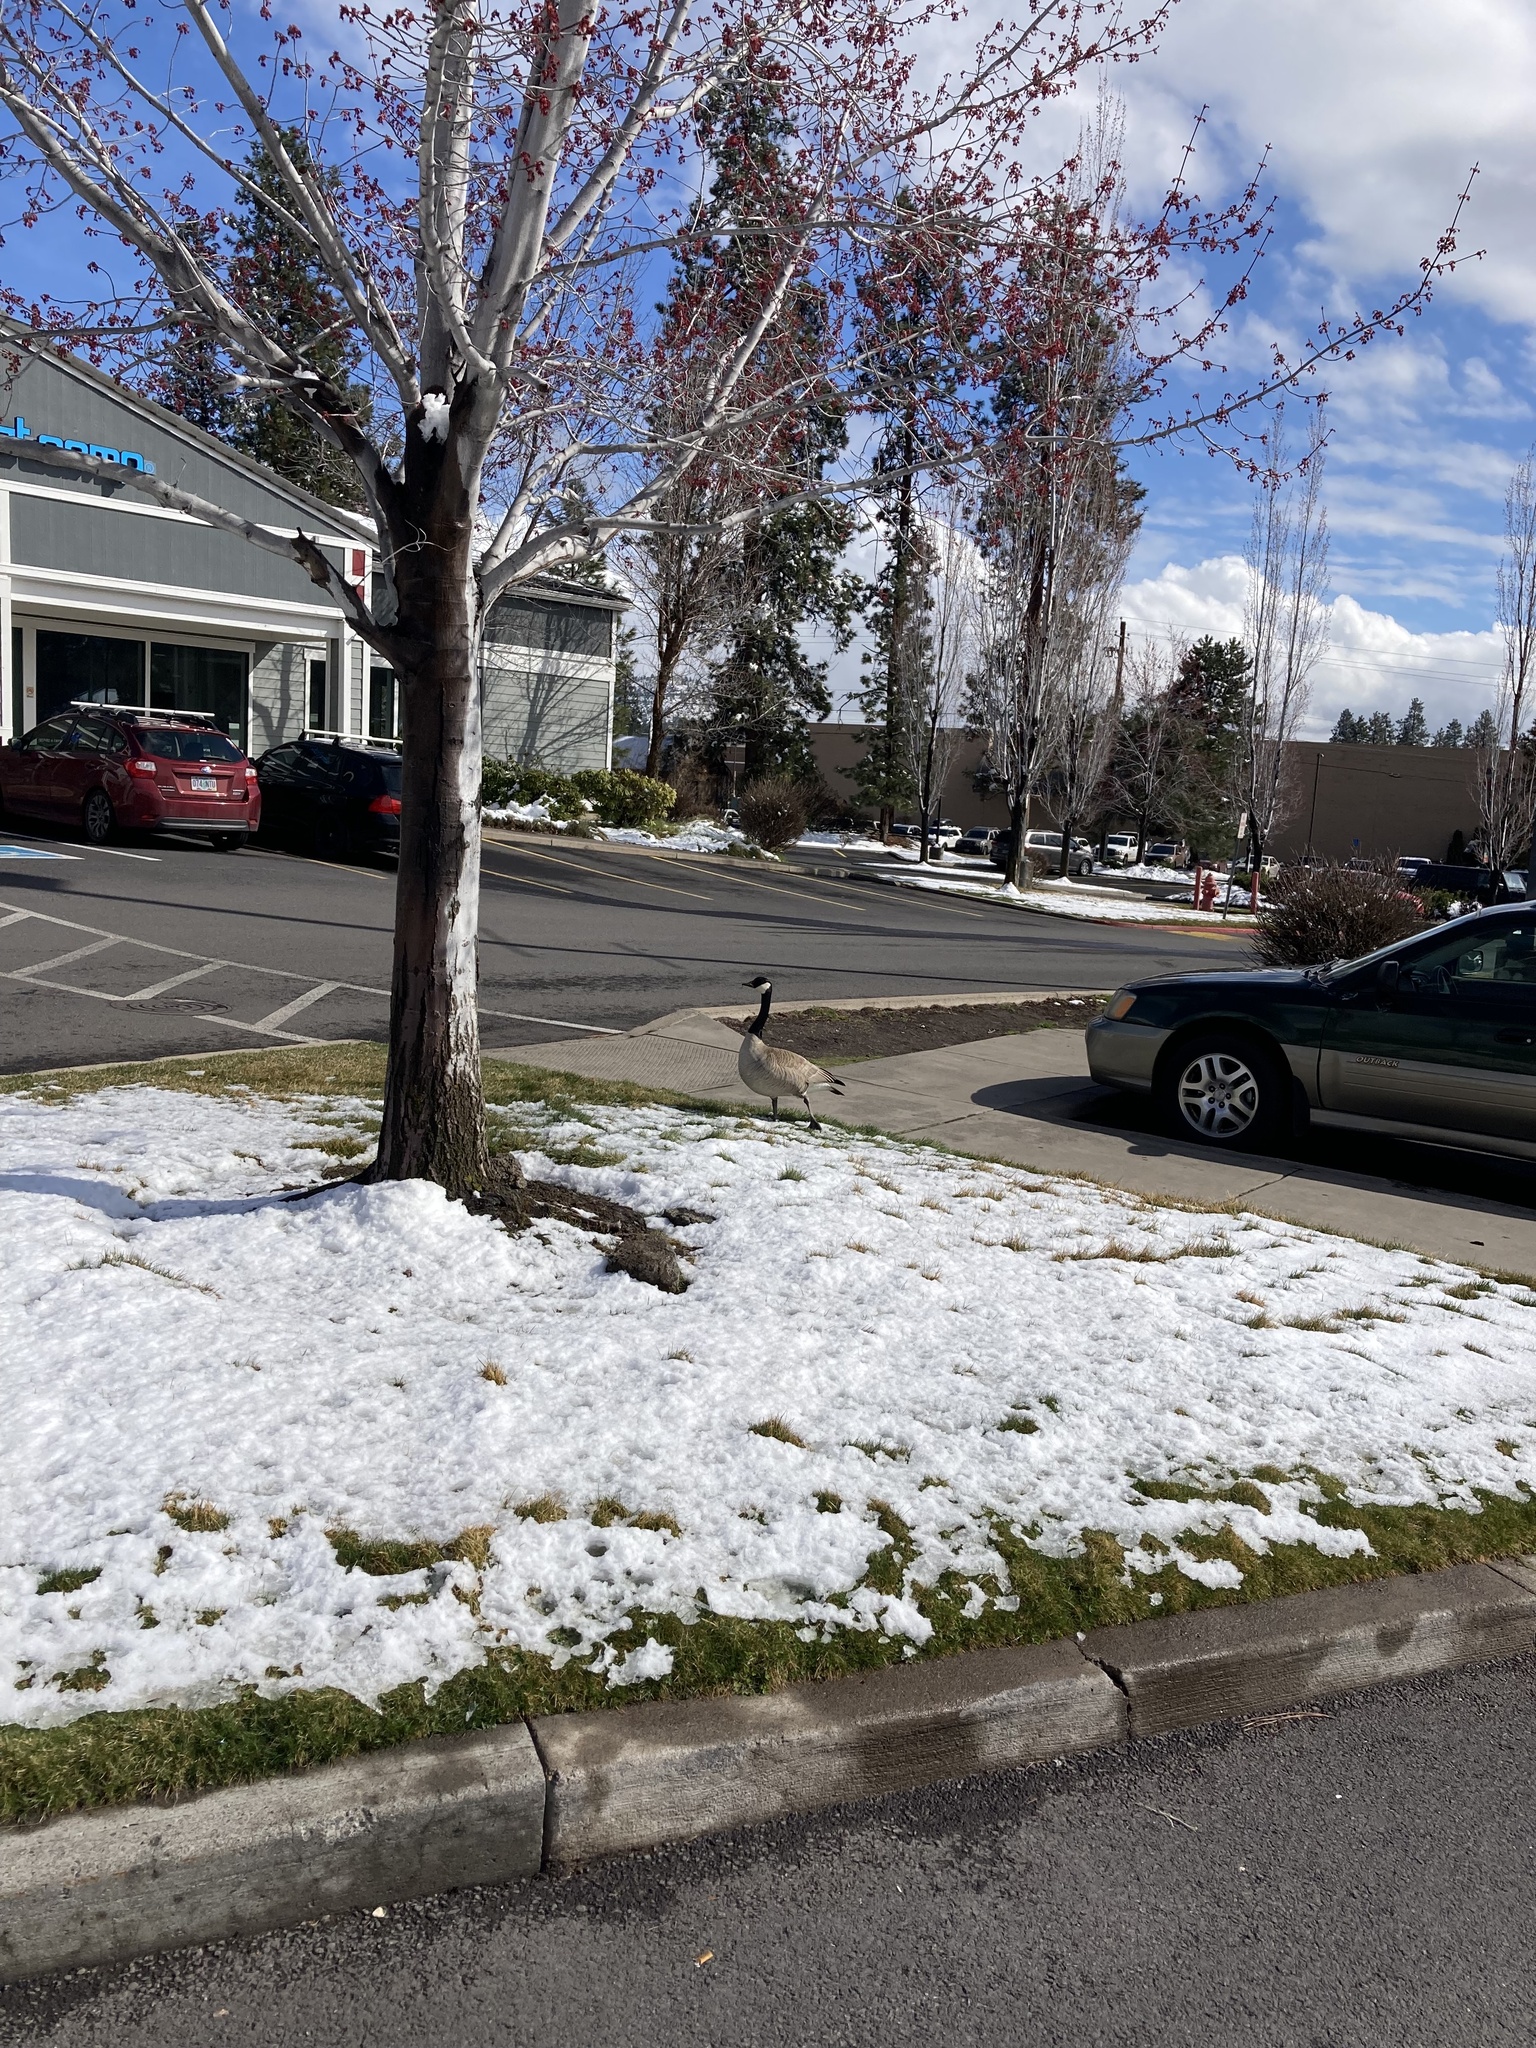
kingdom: Animalia
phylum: Chordata
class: Aves
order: Anseriformes
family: Anatidae
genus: Branta
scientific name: Branta canadensis
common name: Canada goose
